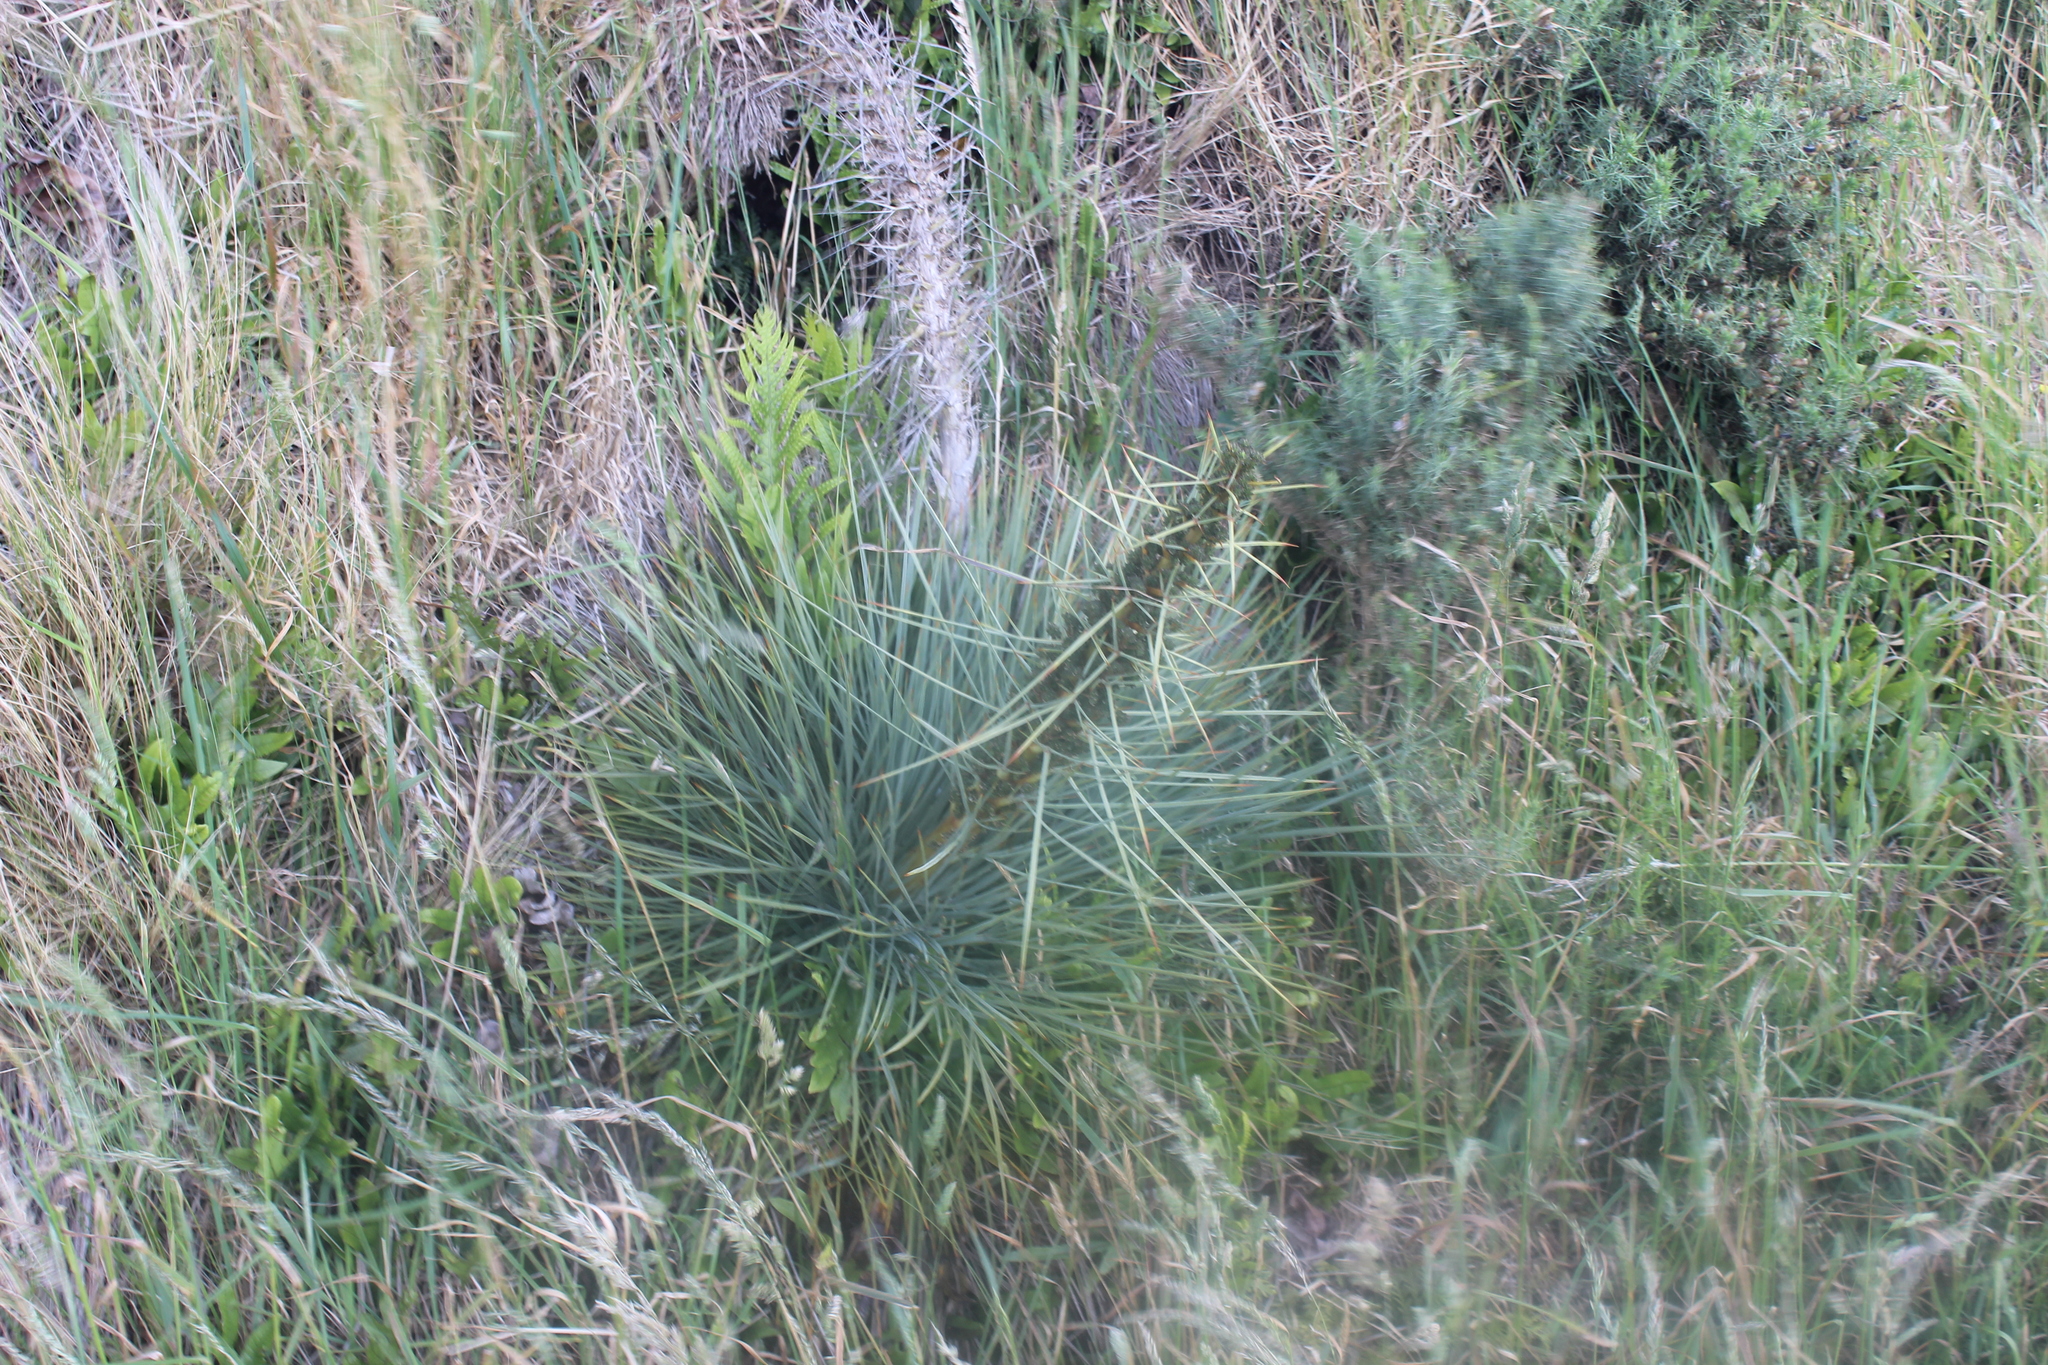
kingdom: Plantae
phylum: Tracheophyta
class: Magnoliopsida
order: Apiales
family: Apiaceae
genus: Aciphylla
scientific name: Aciphylla squarrosa
